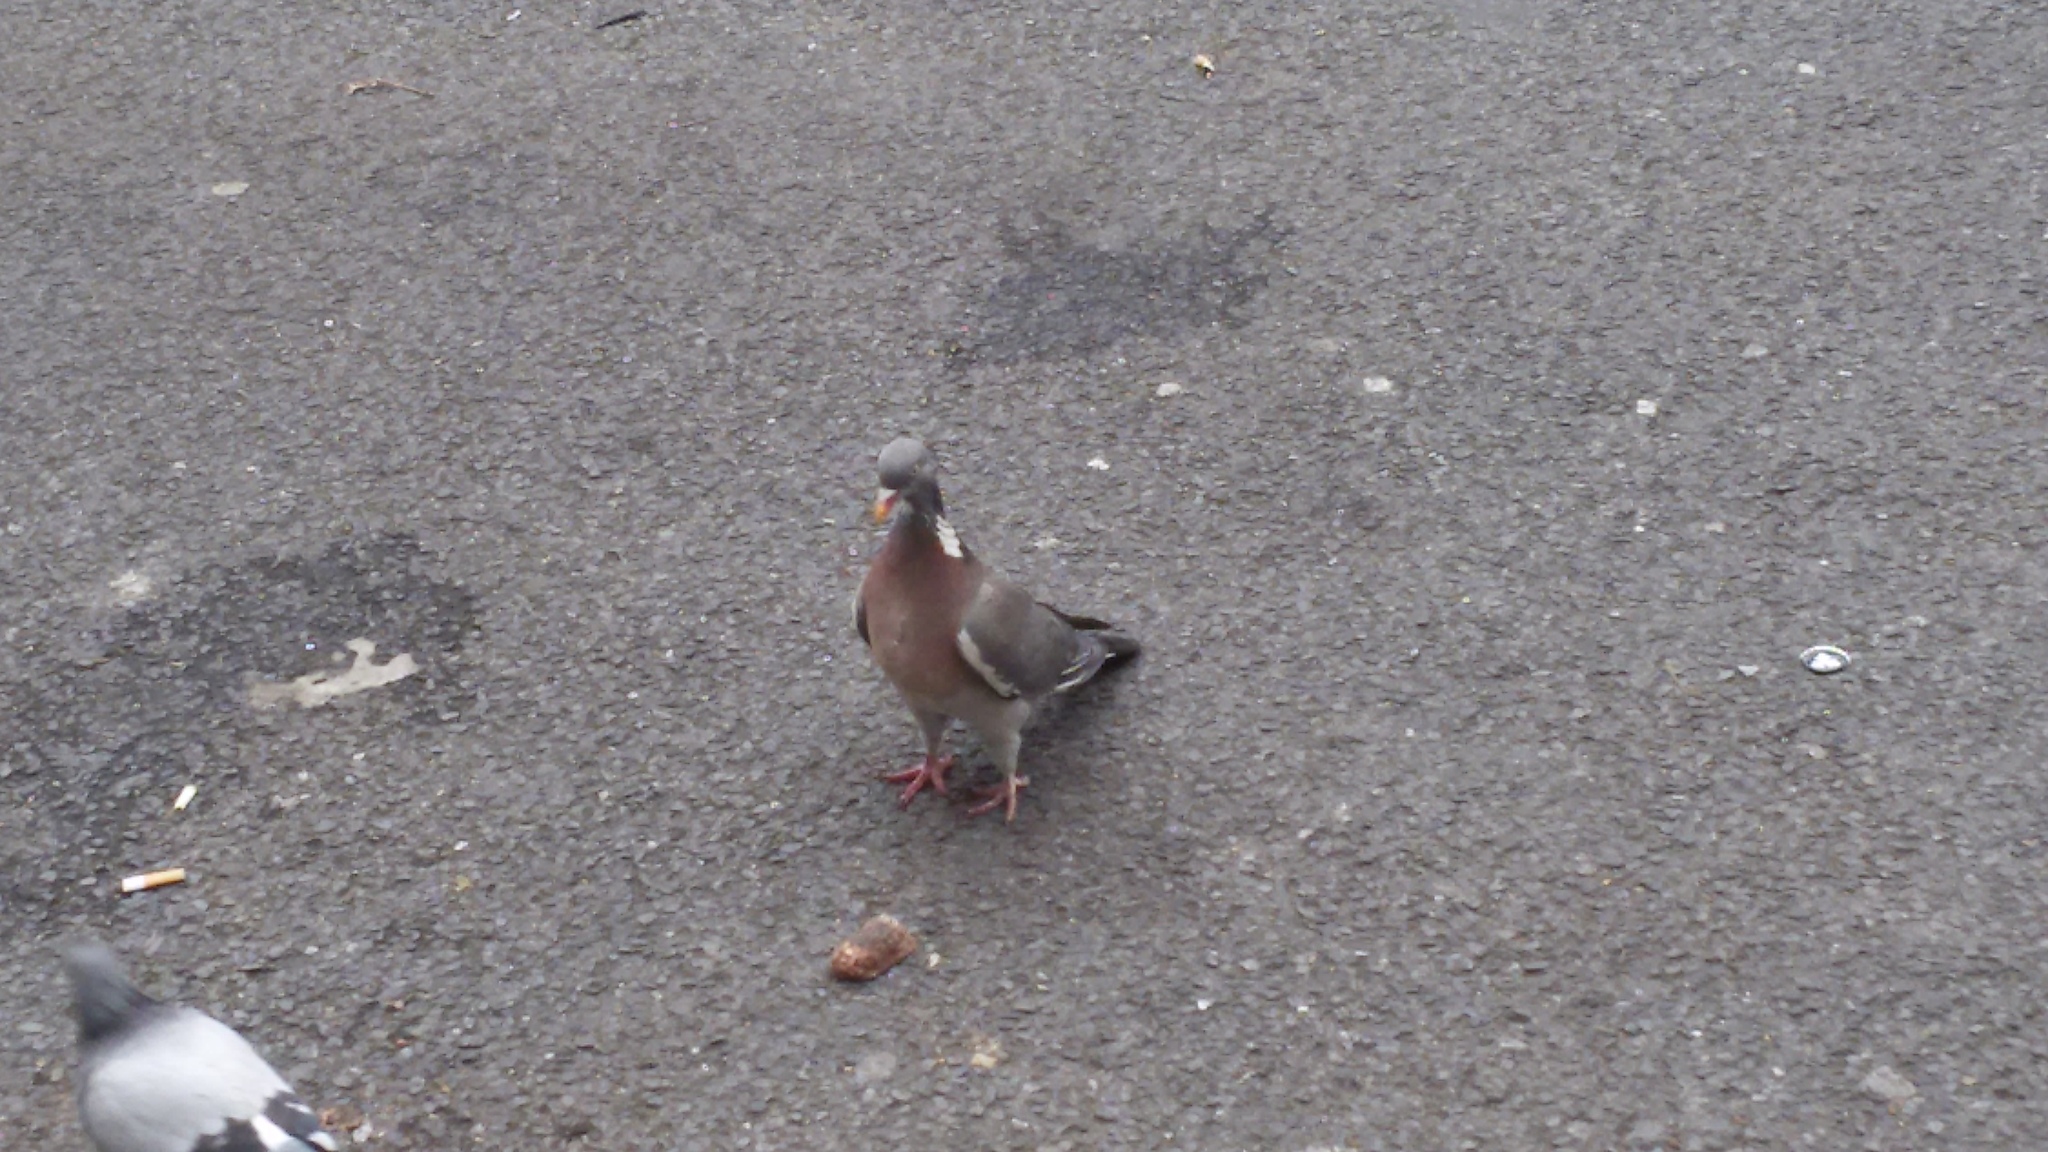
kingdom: Animalia
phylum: Chordata
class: Aves
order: Columbiformes
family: Columbidae
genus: Columba
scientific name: Columba palumbus
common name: Common wood pigeon
